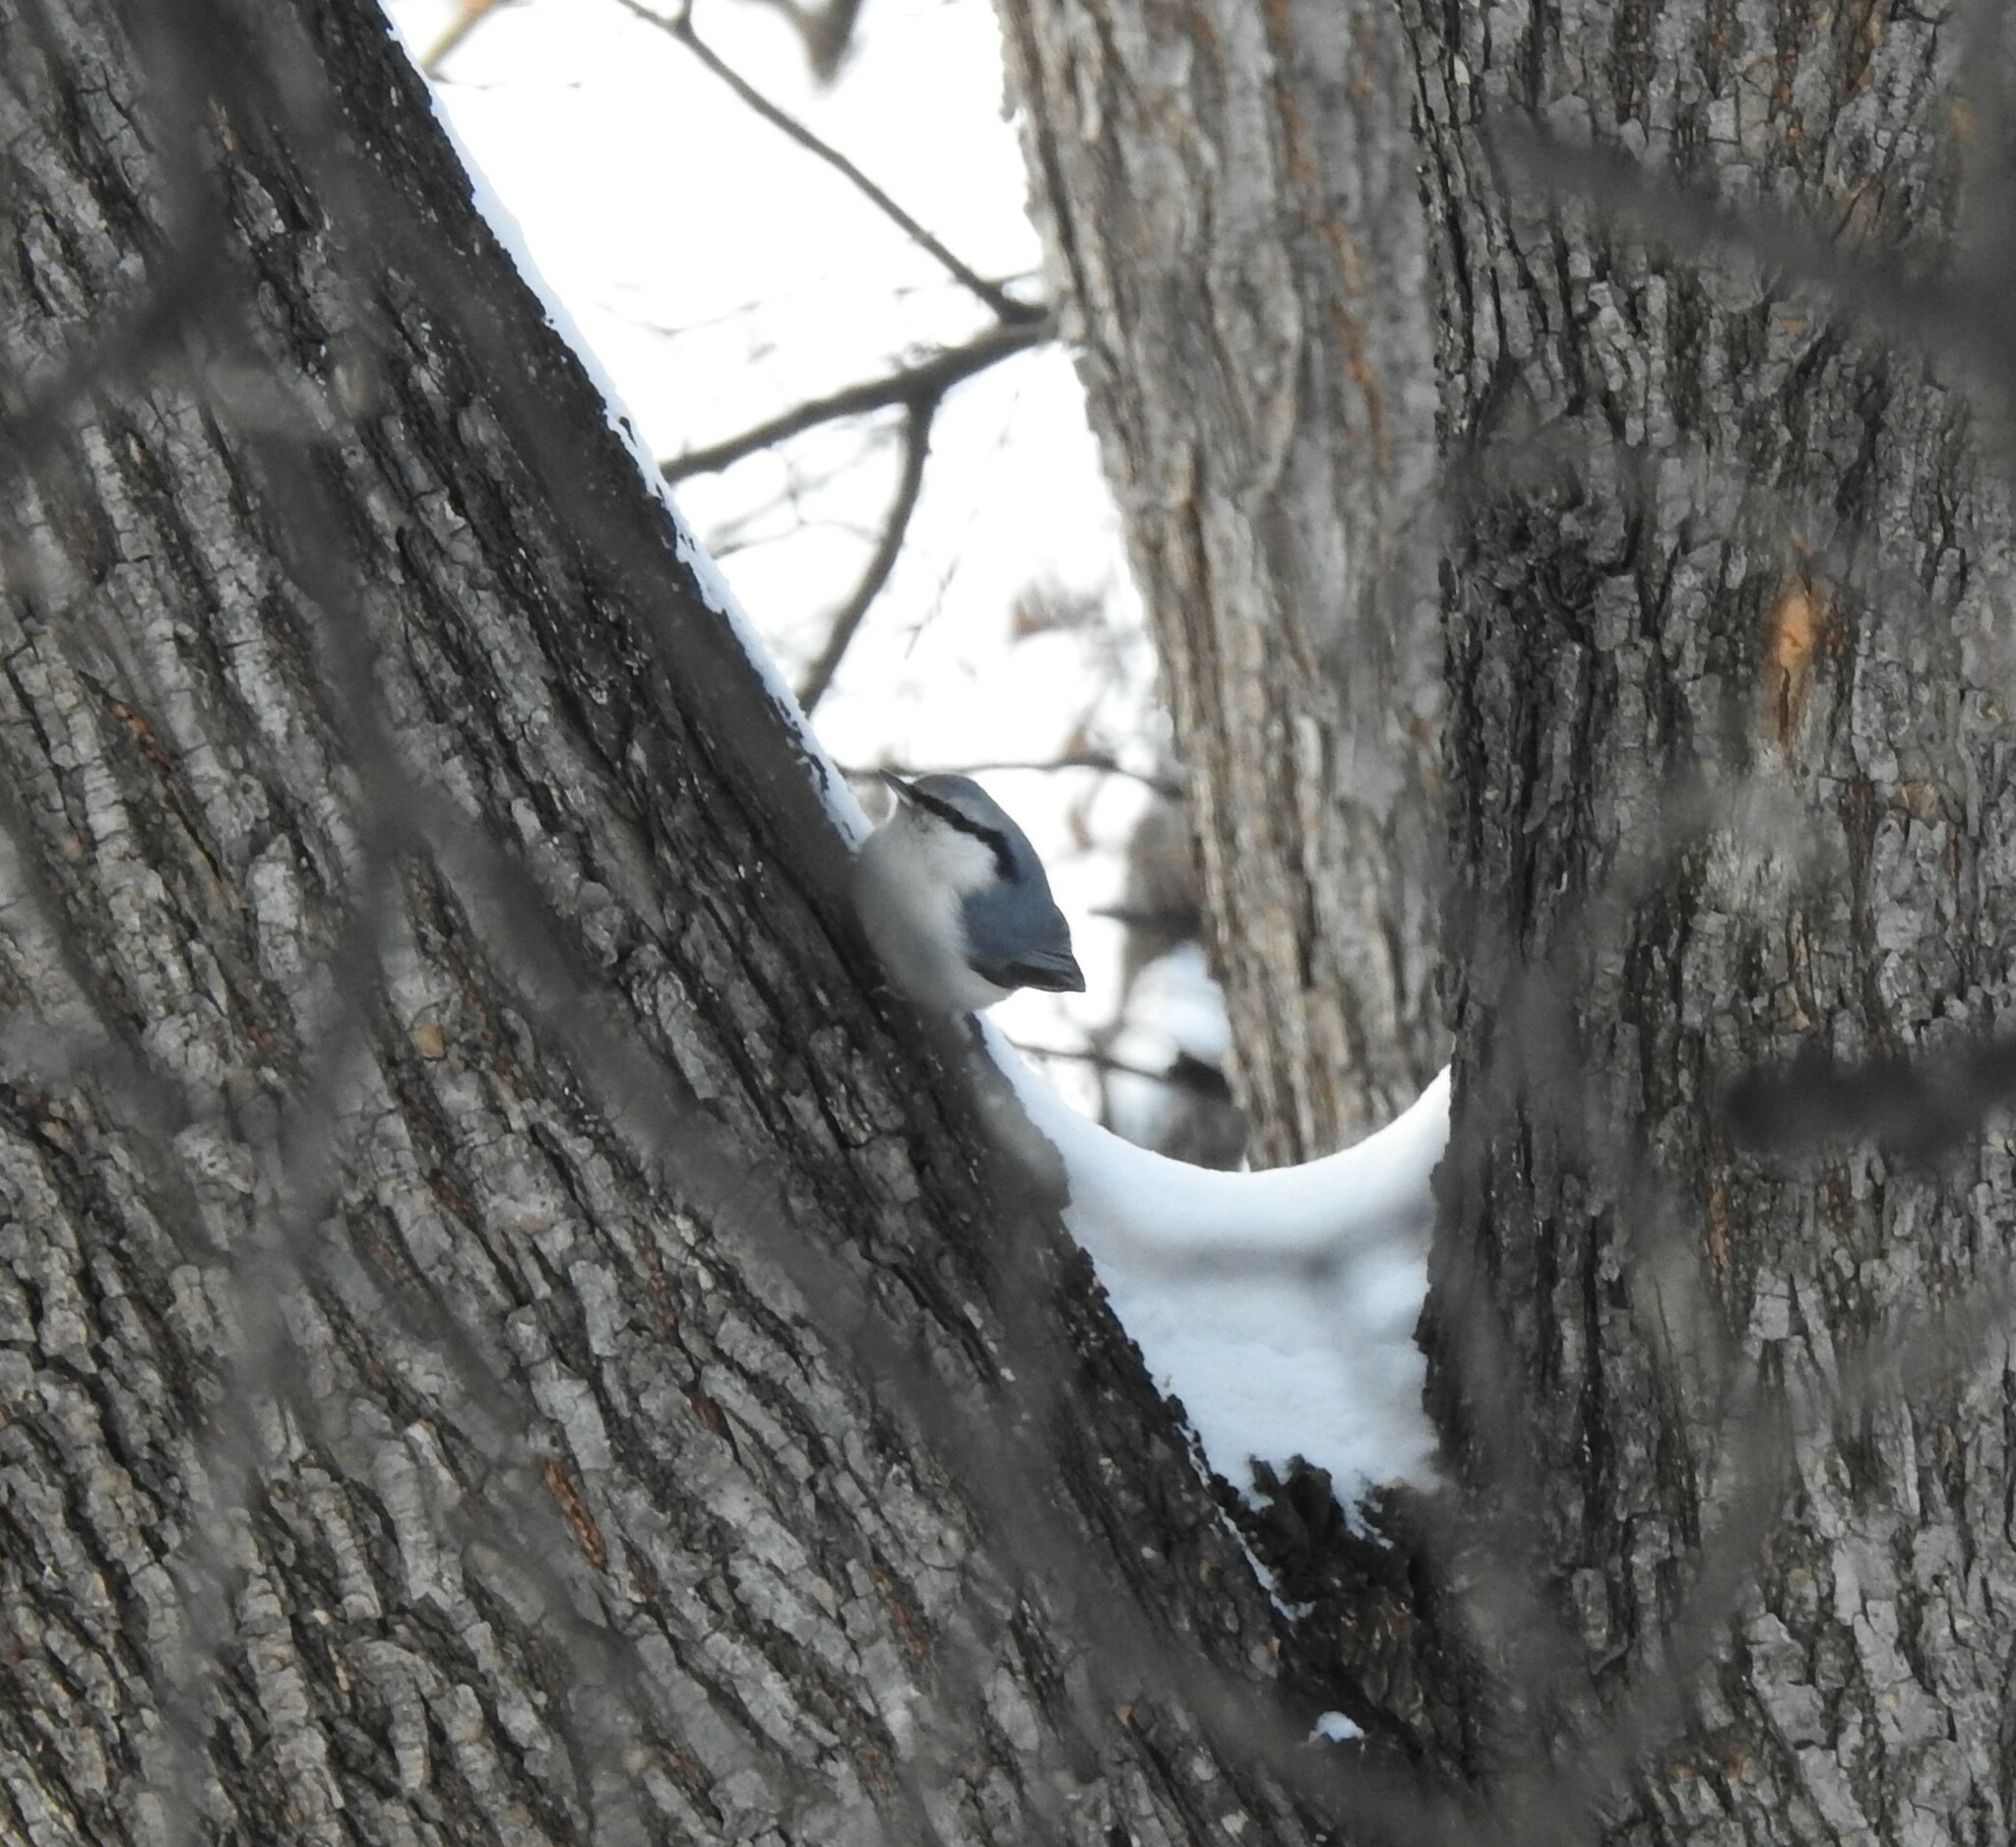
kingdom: Animalia
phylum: Chordata
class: Aves
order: Passeriformes
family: Sittidae
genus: Sitta
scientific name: Sitta europaea
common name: Eurasian nuthatch
